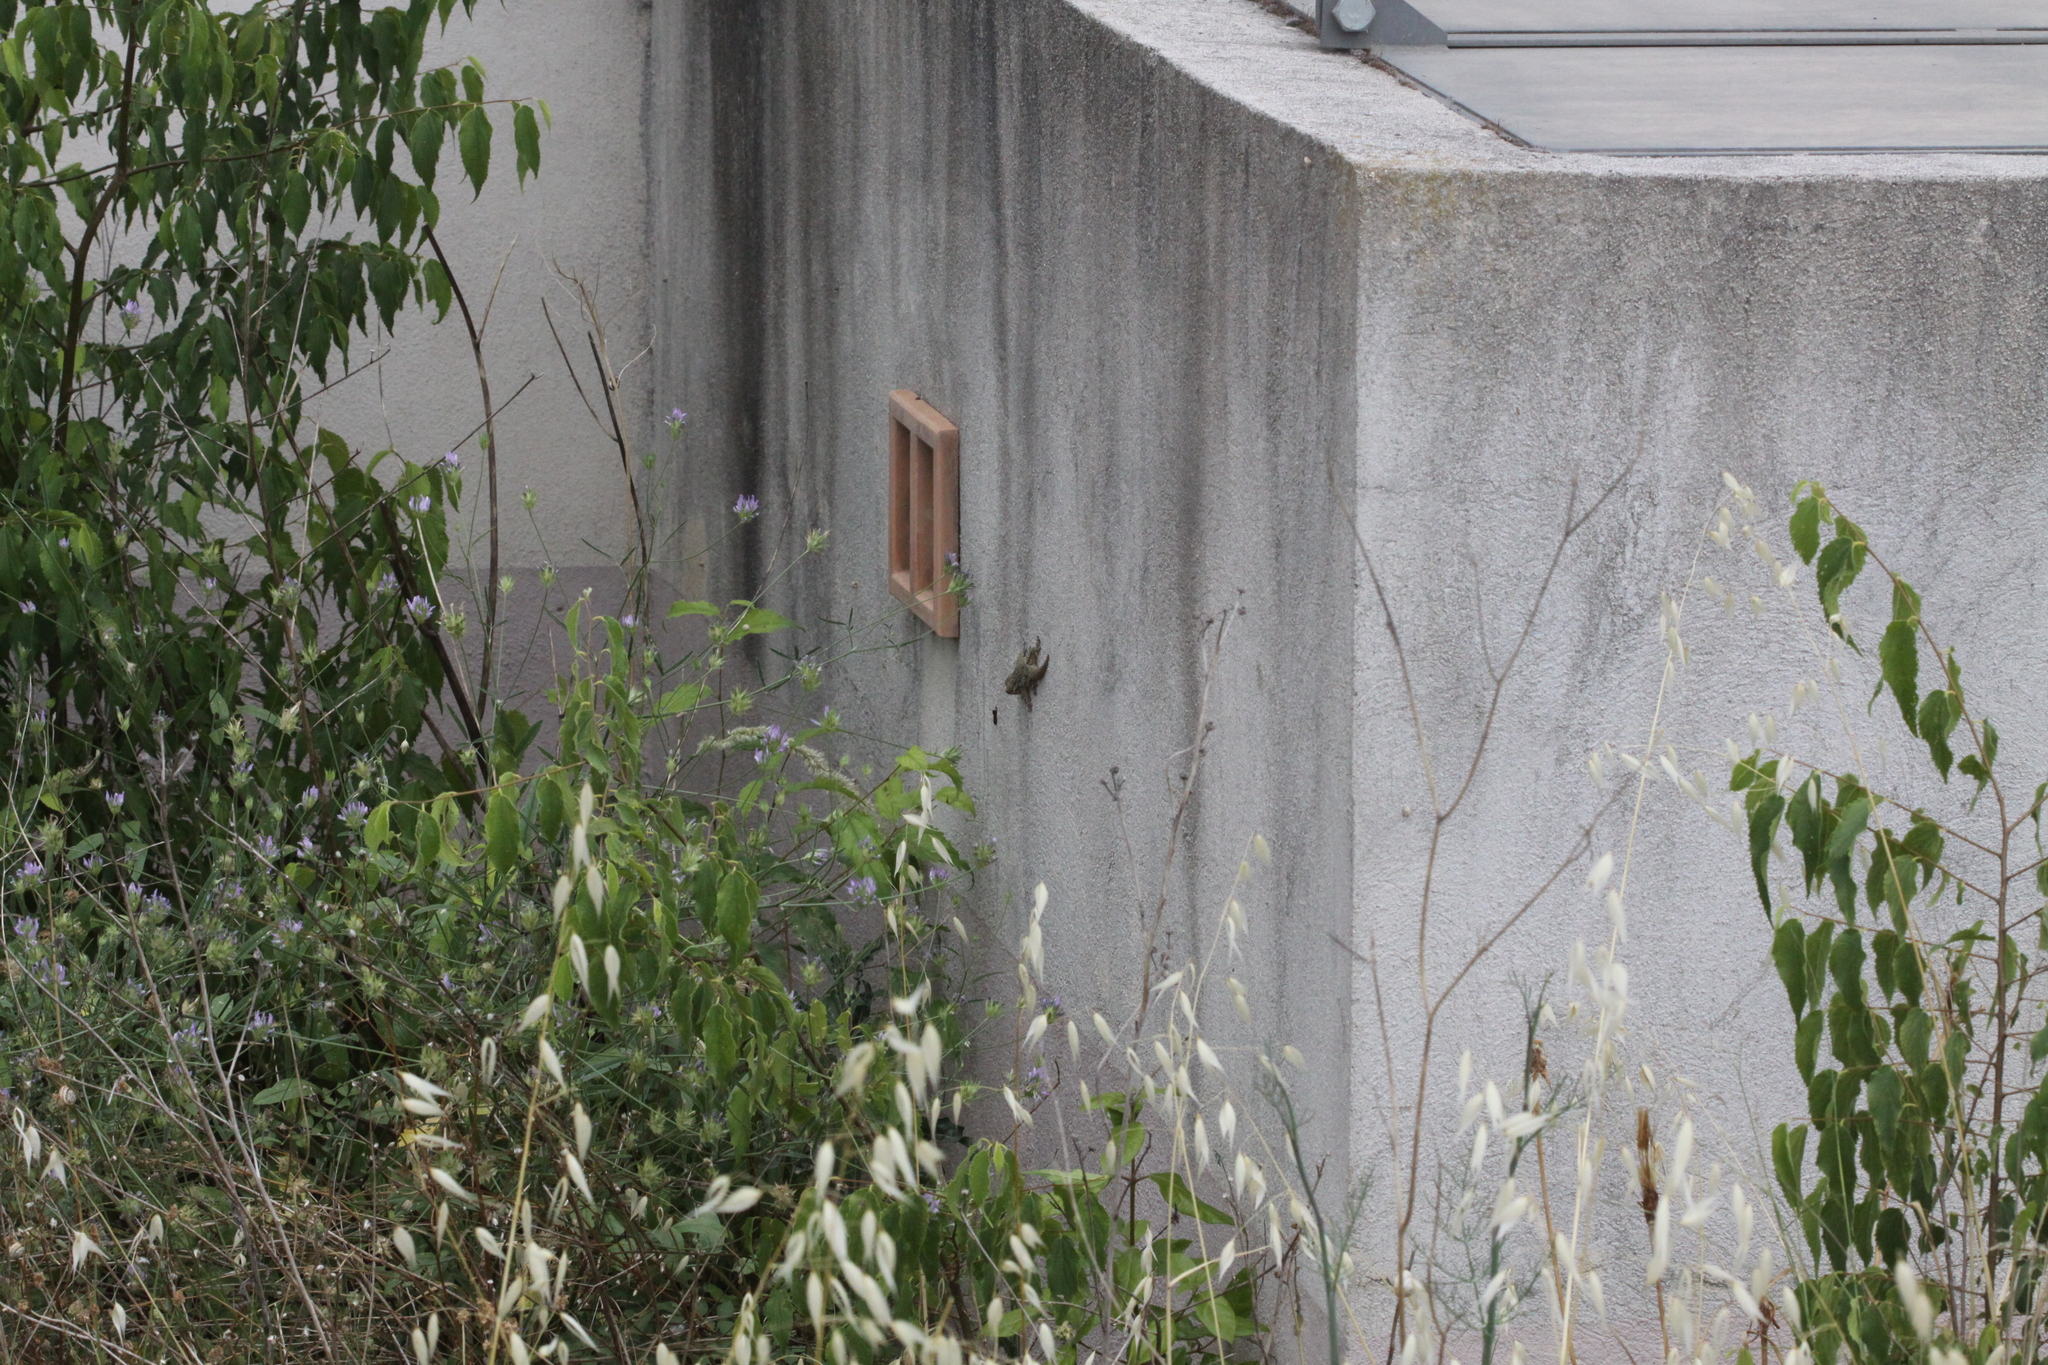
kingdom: Animalia
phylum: Chordata
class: Squamata
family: Phyllodactylidae
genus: Tarentola
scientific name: Tarentola mauritanica
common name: Moorish gecko
